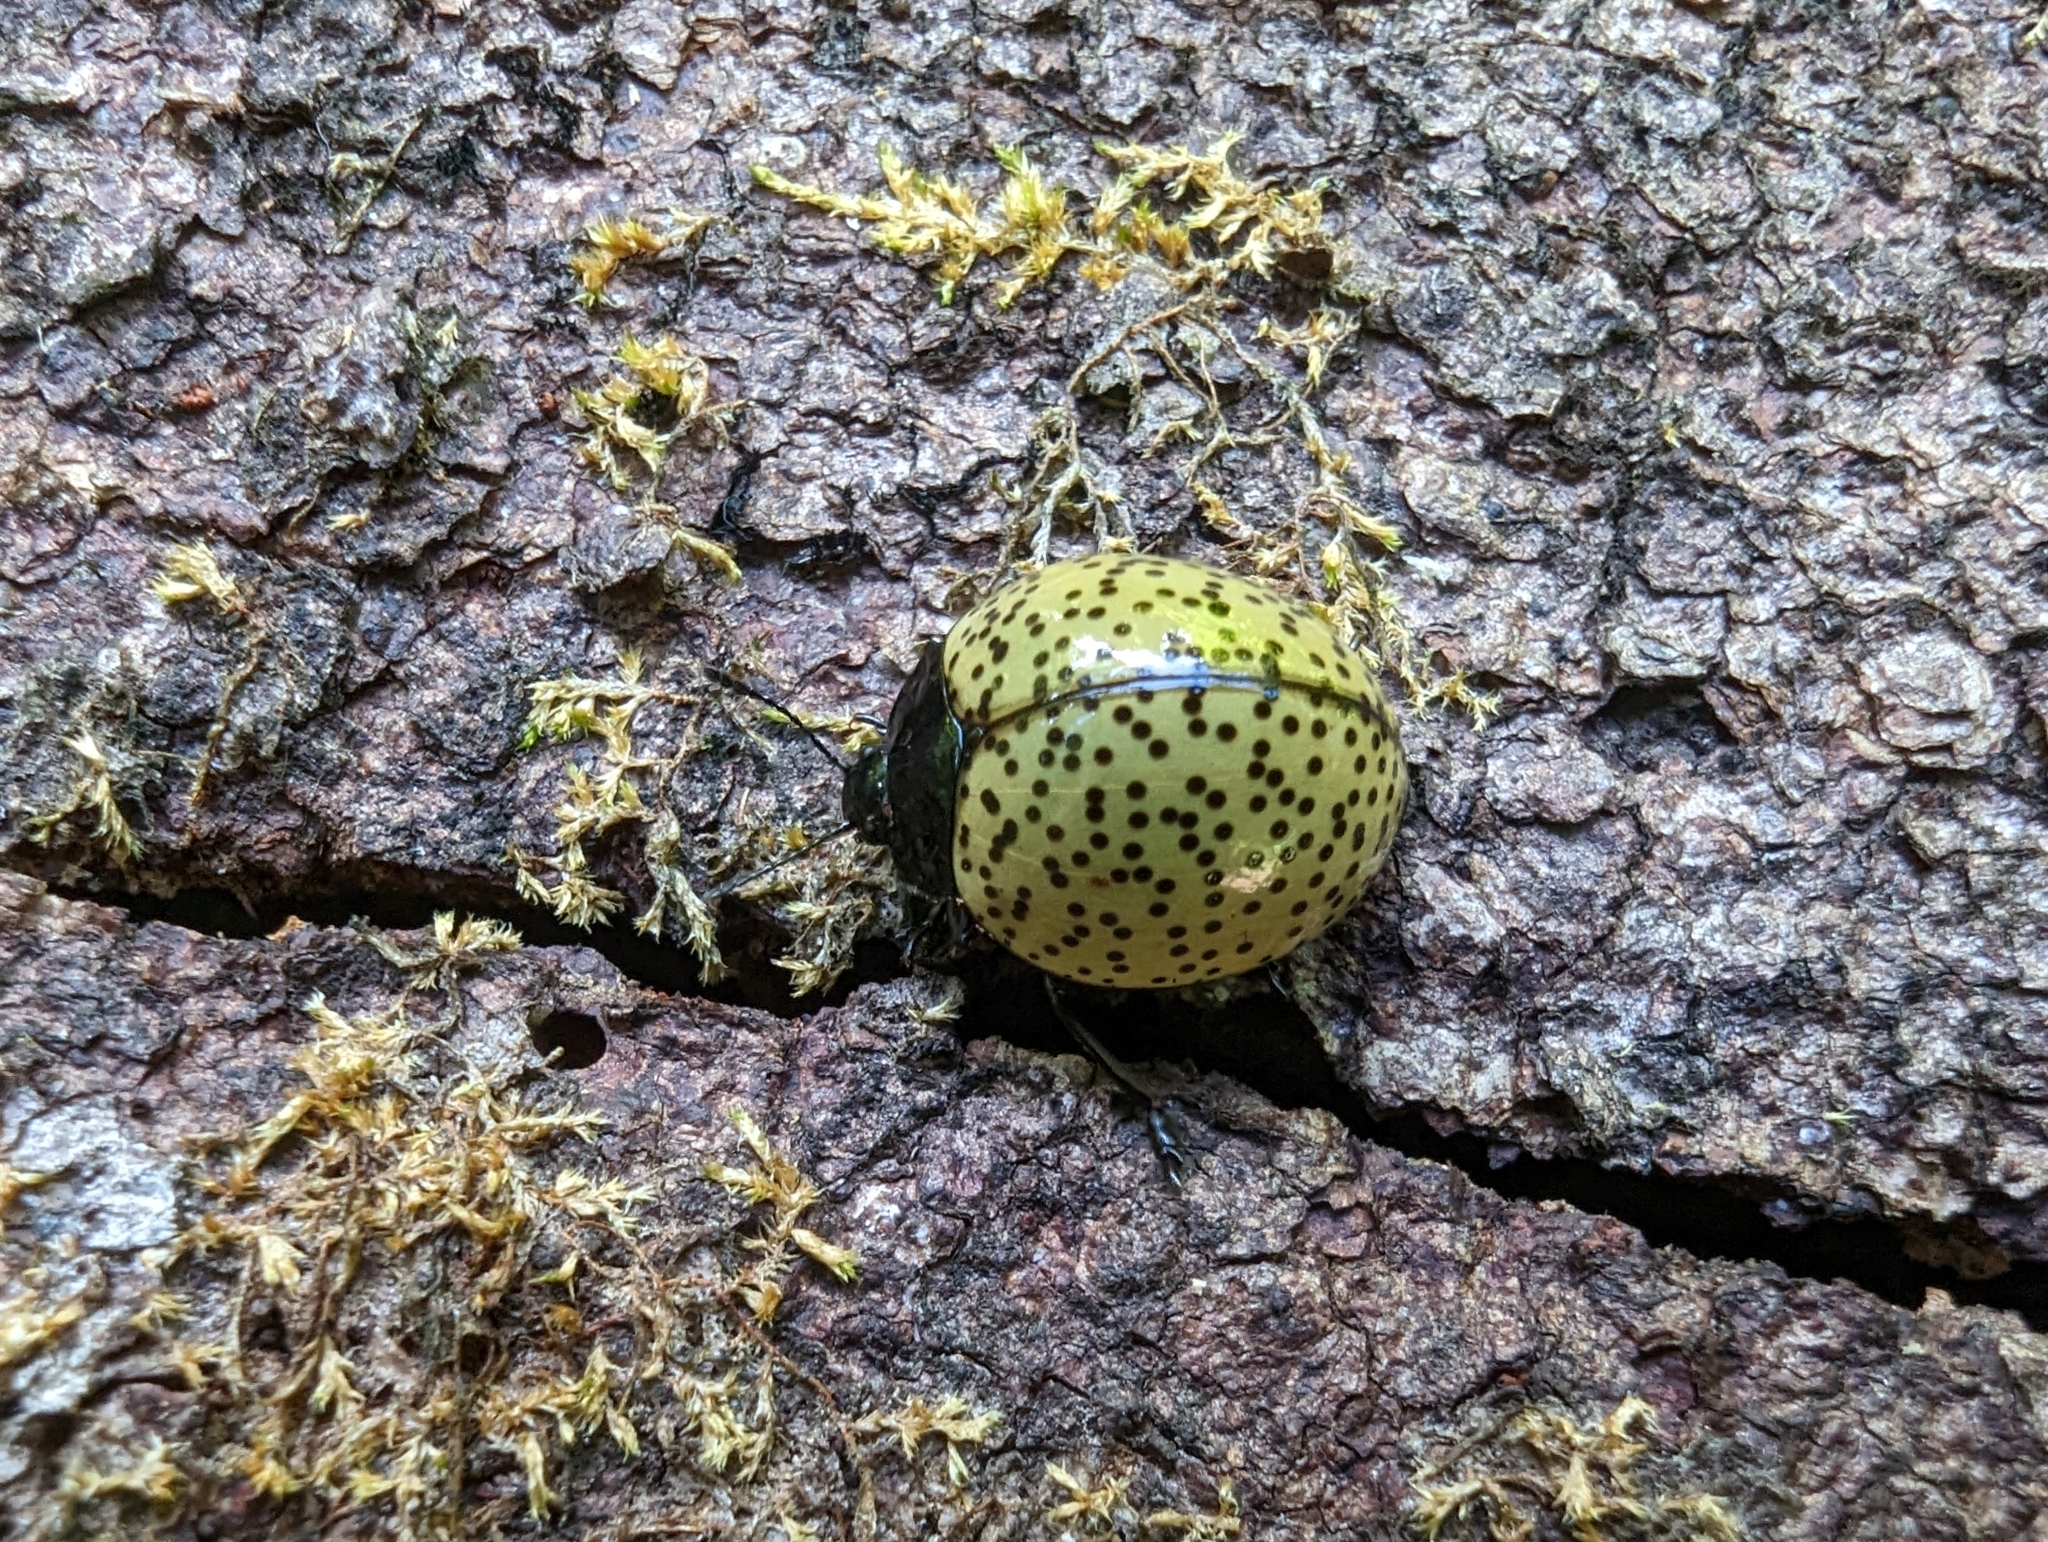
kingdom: Animalia
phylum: Arthropoda
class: Insecta
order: Coleoptera
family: Erotylidae
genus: Aegithus
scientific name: Aegithus
